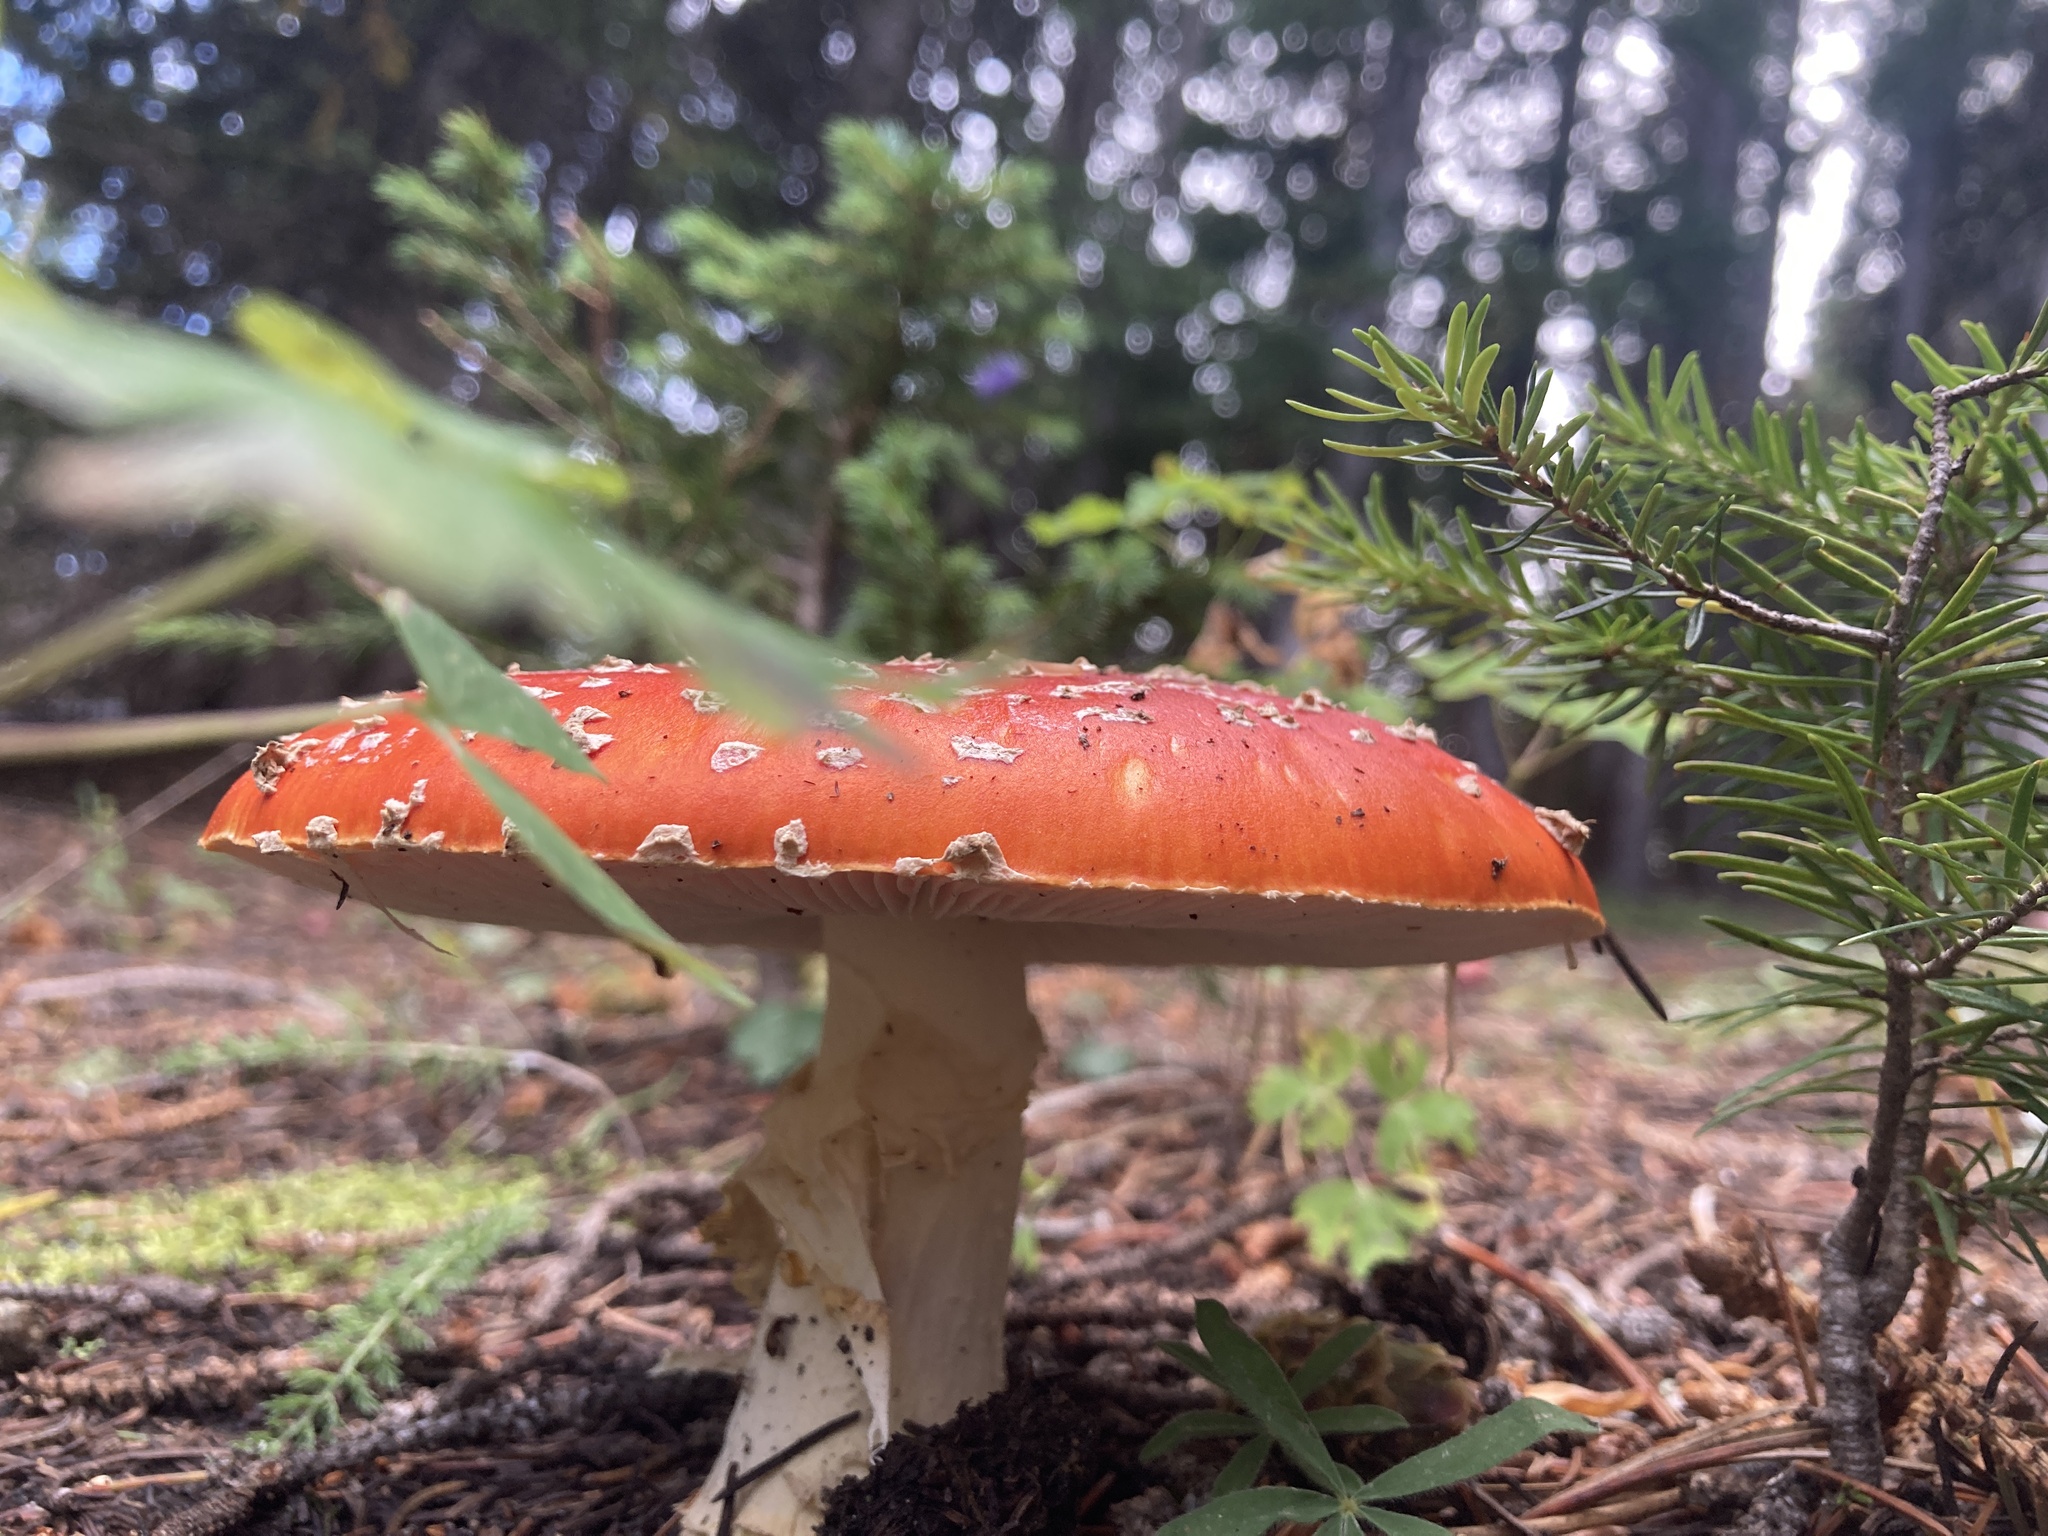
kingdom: Fungi
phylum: Basidiomycota
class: Agaricomycetes
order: Agaricales
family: Amanitaceae
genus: Amanita
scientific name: Amanita muscaria
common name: Fly agaric
